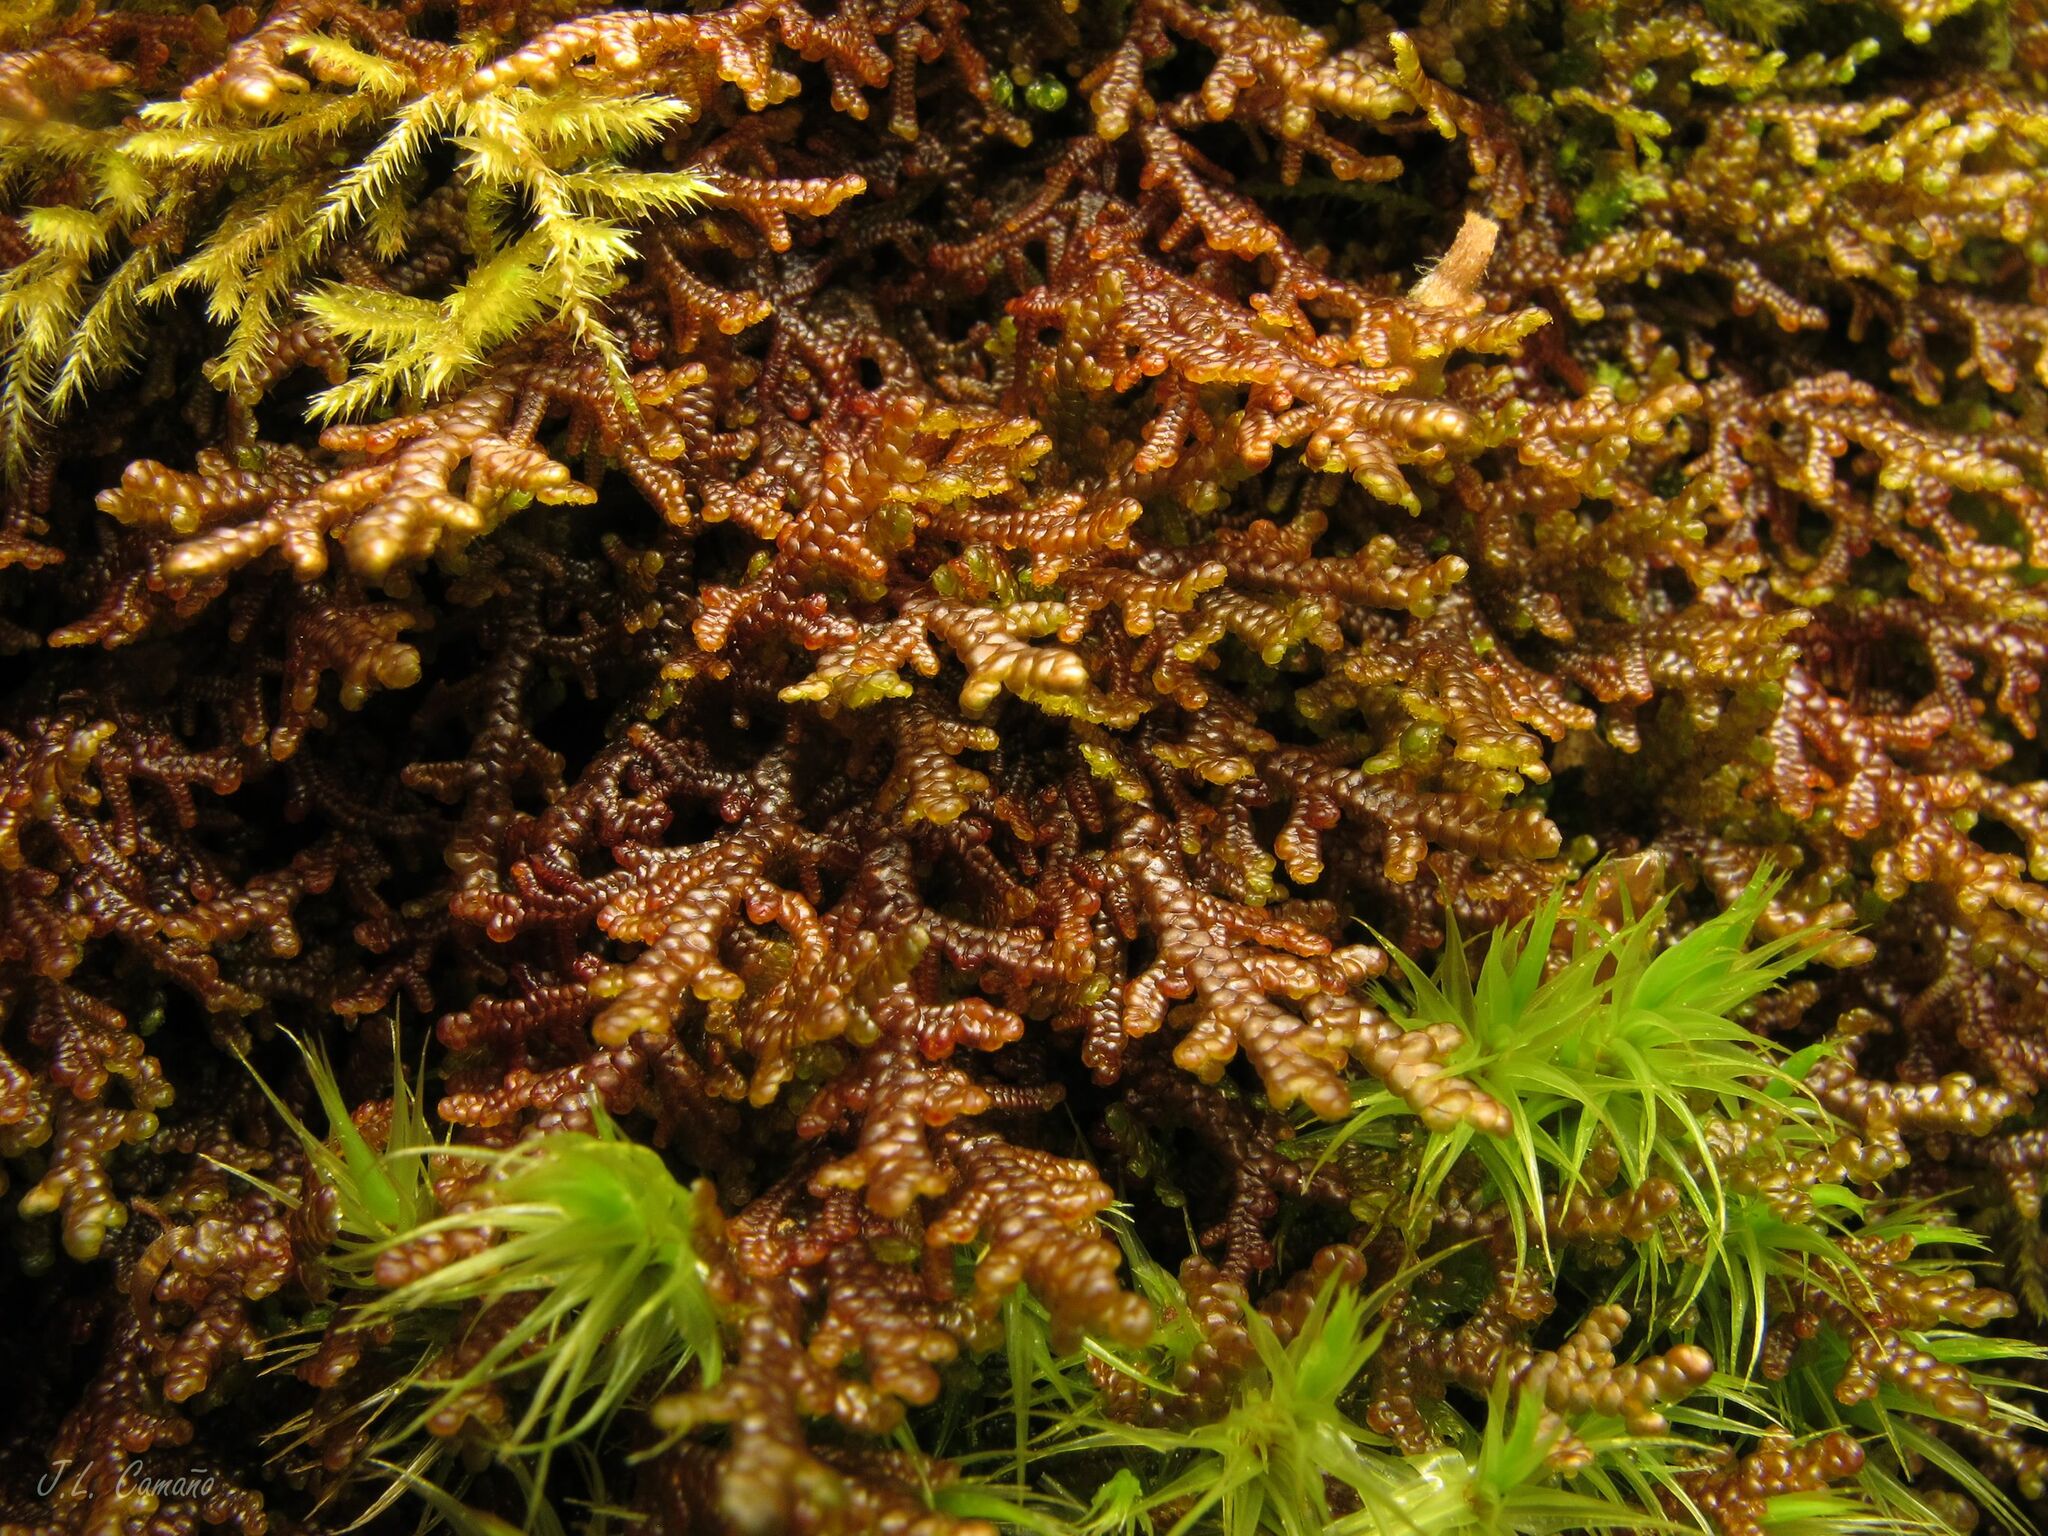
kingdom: Plantae
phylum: Marchantiophyta
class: Jungermanniopsida
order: Porellales
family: Frullaniaceae
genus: Frullania
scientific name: Frullania tamarisci
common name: Tamarisk scalewort
